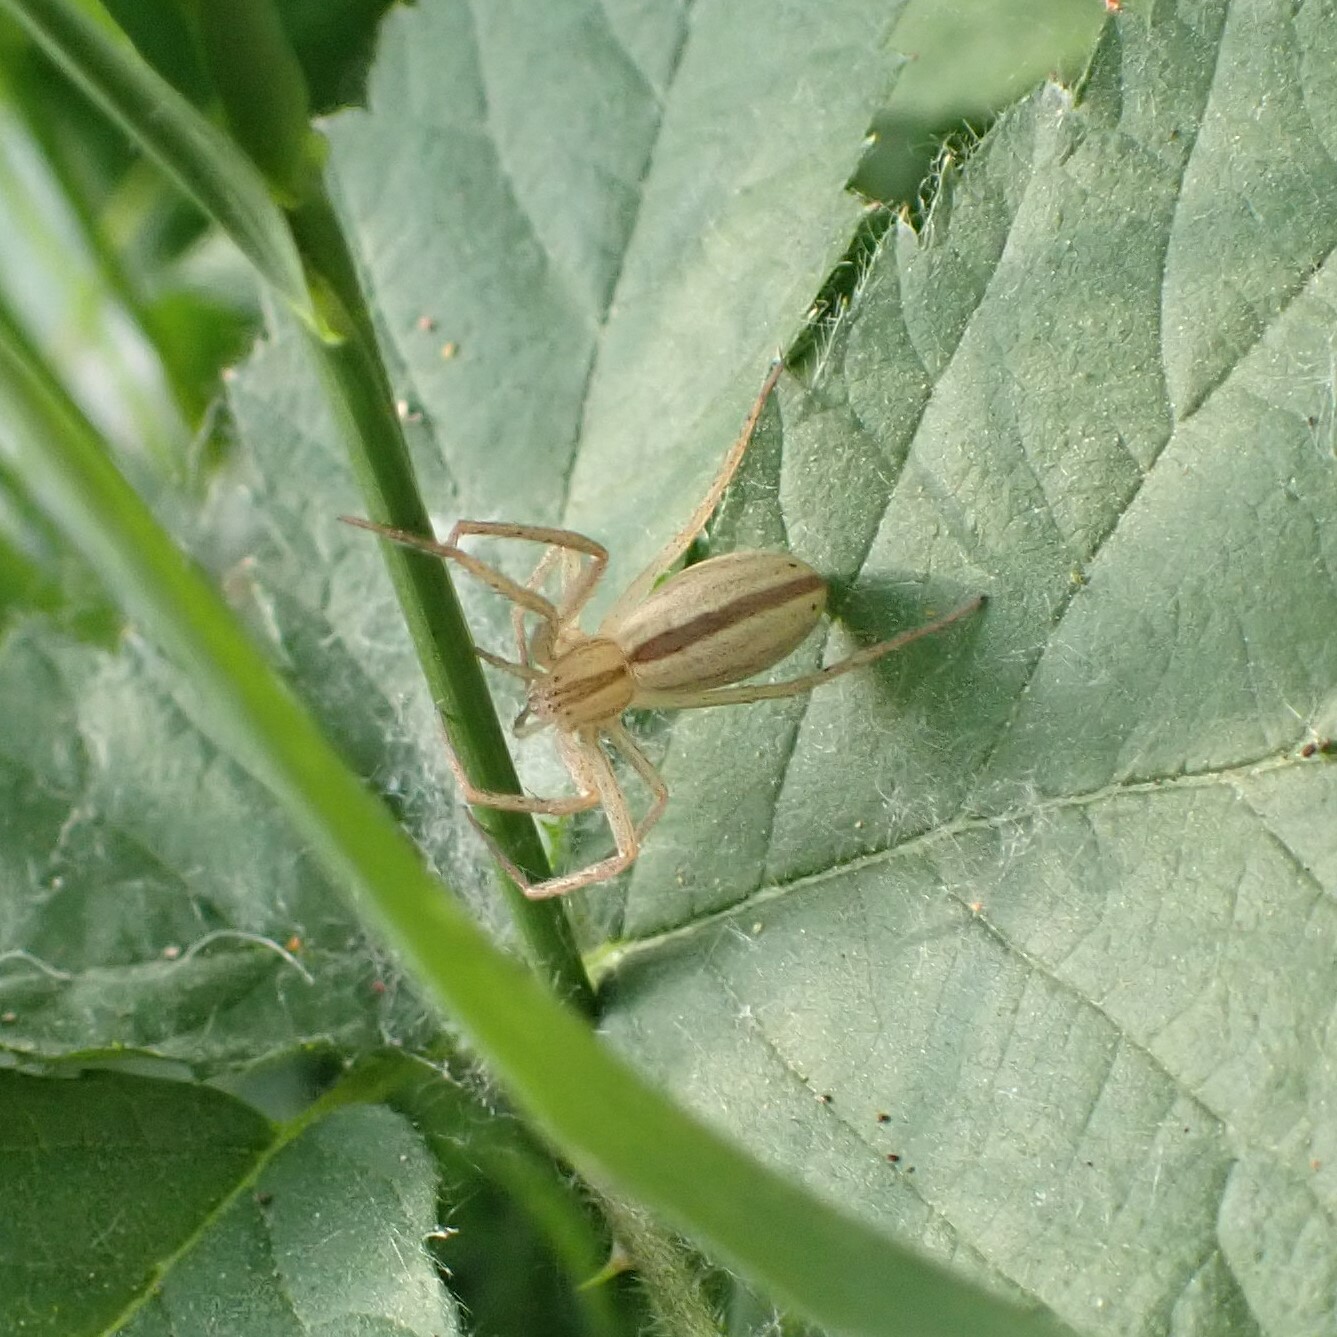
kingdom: Animalia
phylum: Arthropoda
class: Arachnida
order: Araneae
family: Philodromidae
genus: Tibellus
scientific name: Tibellus oblongus
